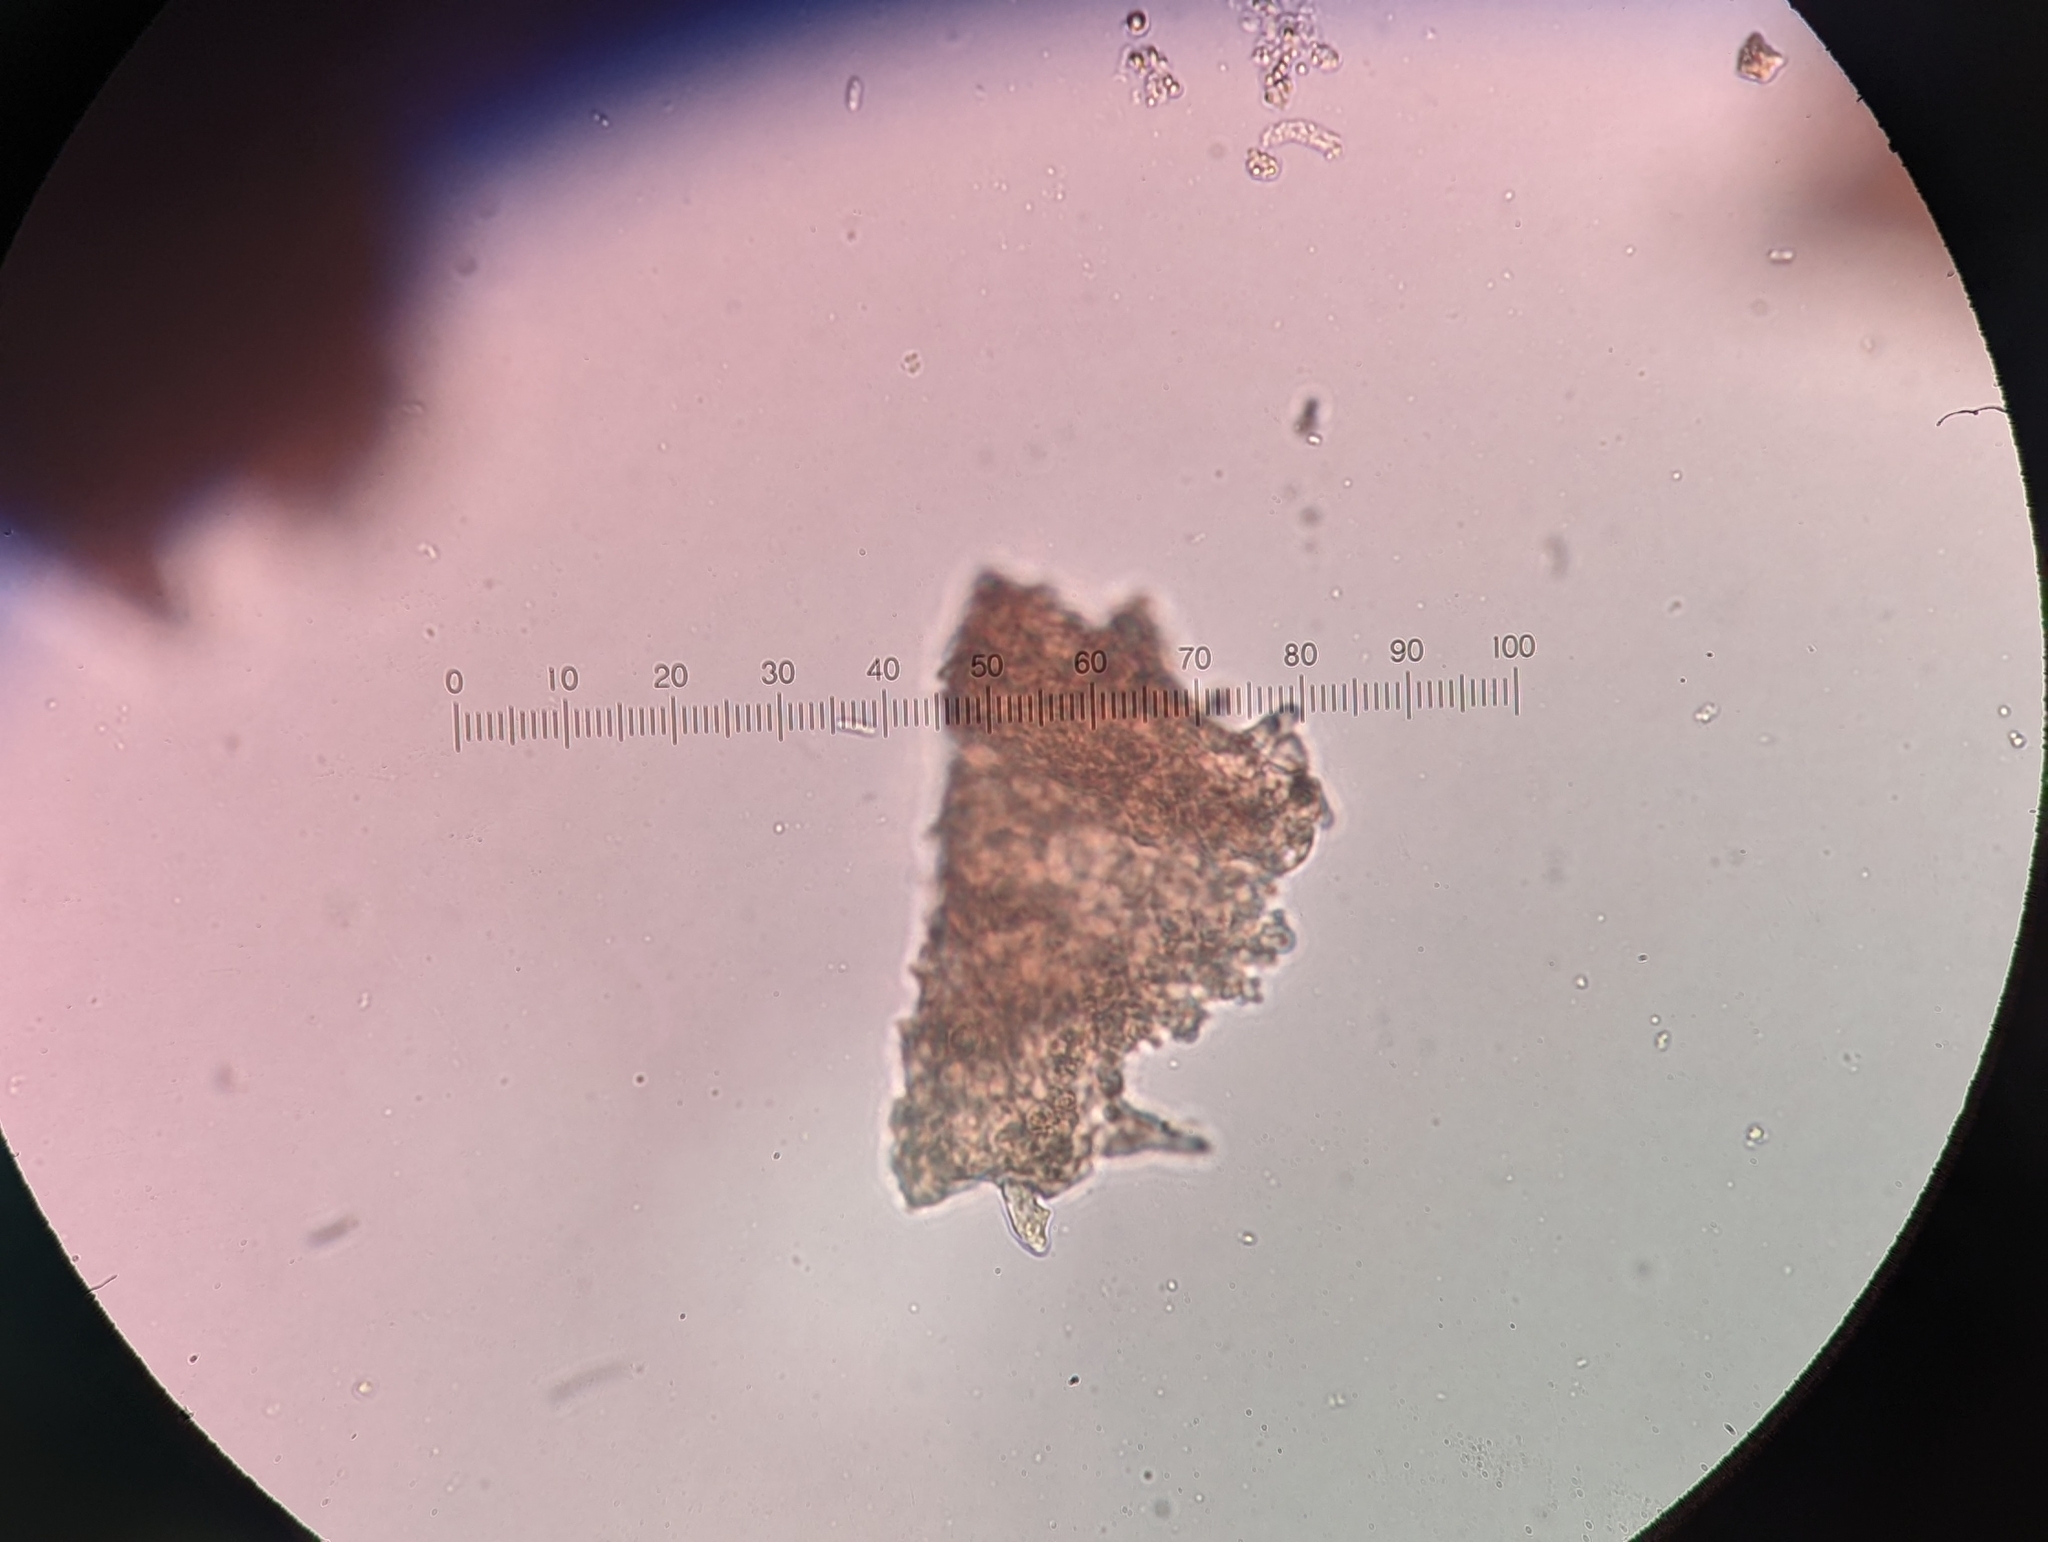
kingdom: Fungi
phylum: Basidiomycota
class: Agaricomycetes
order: Gomphales
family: Clavariadelphaceae
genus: Clavariadelphus
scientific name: Clavariadelphus ligula
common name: Ochre club
